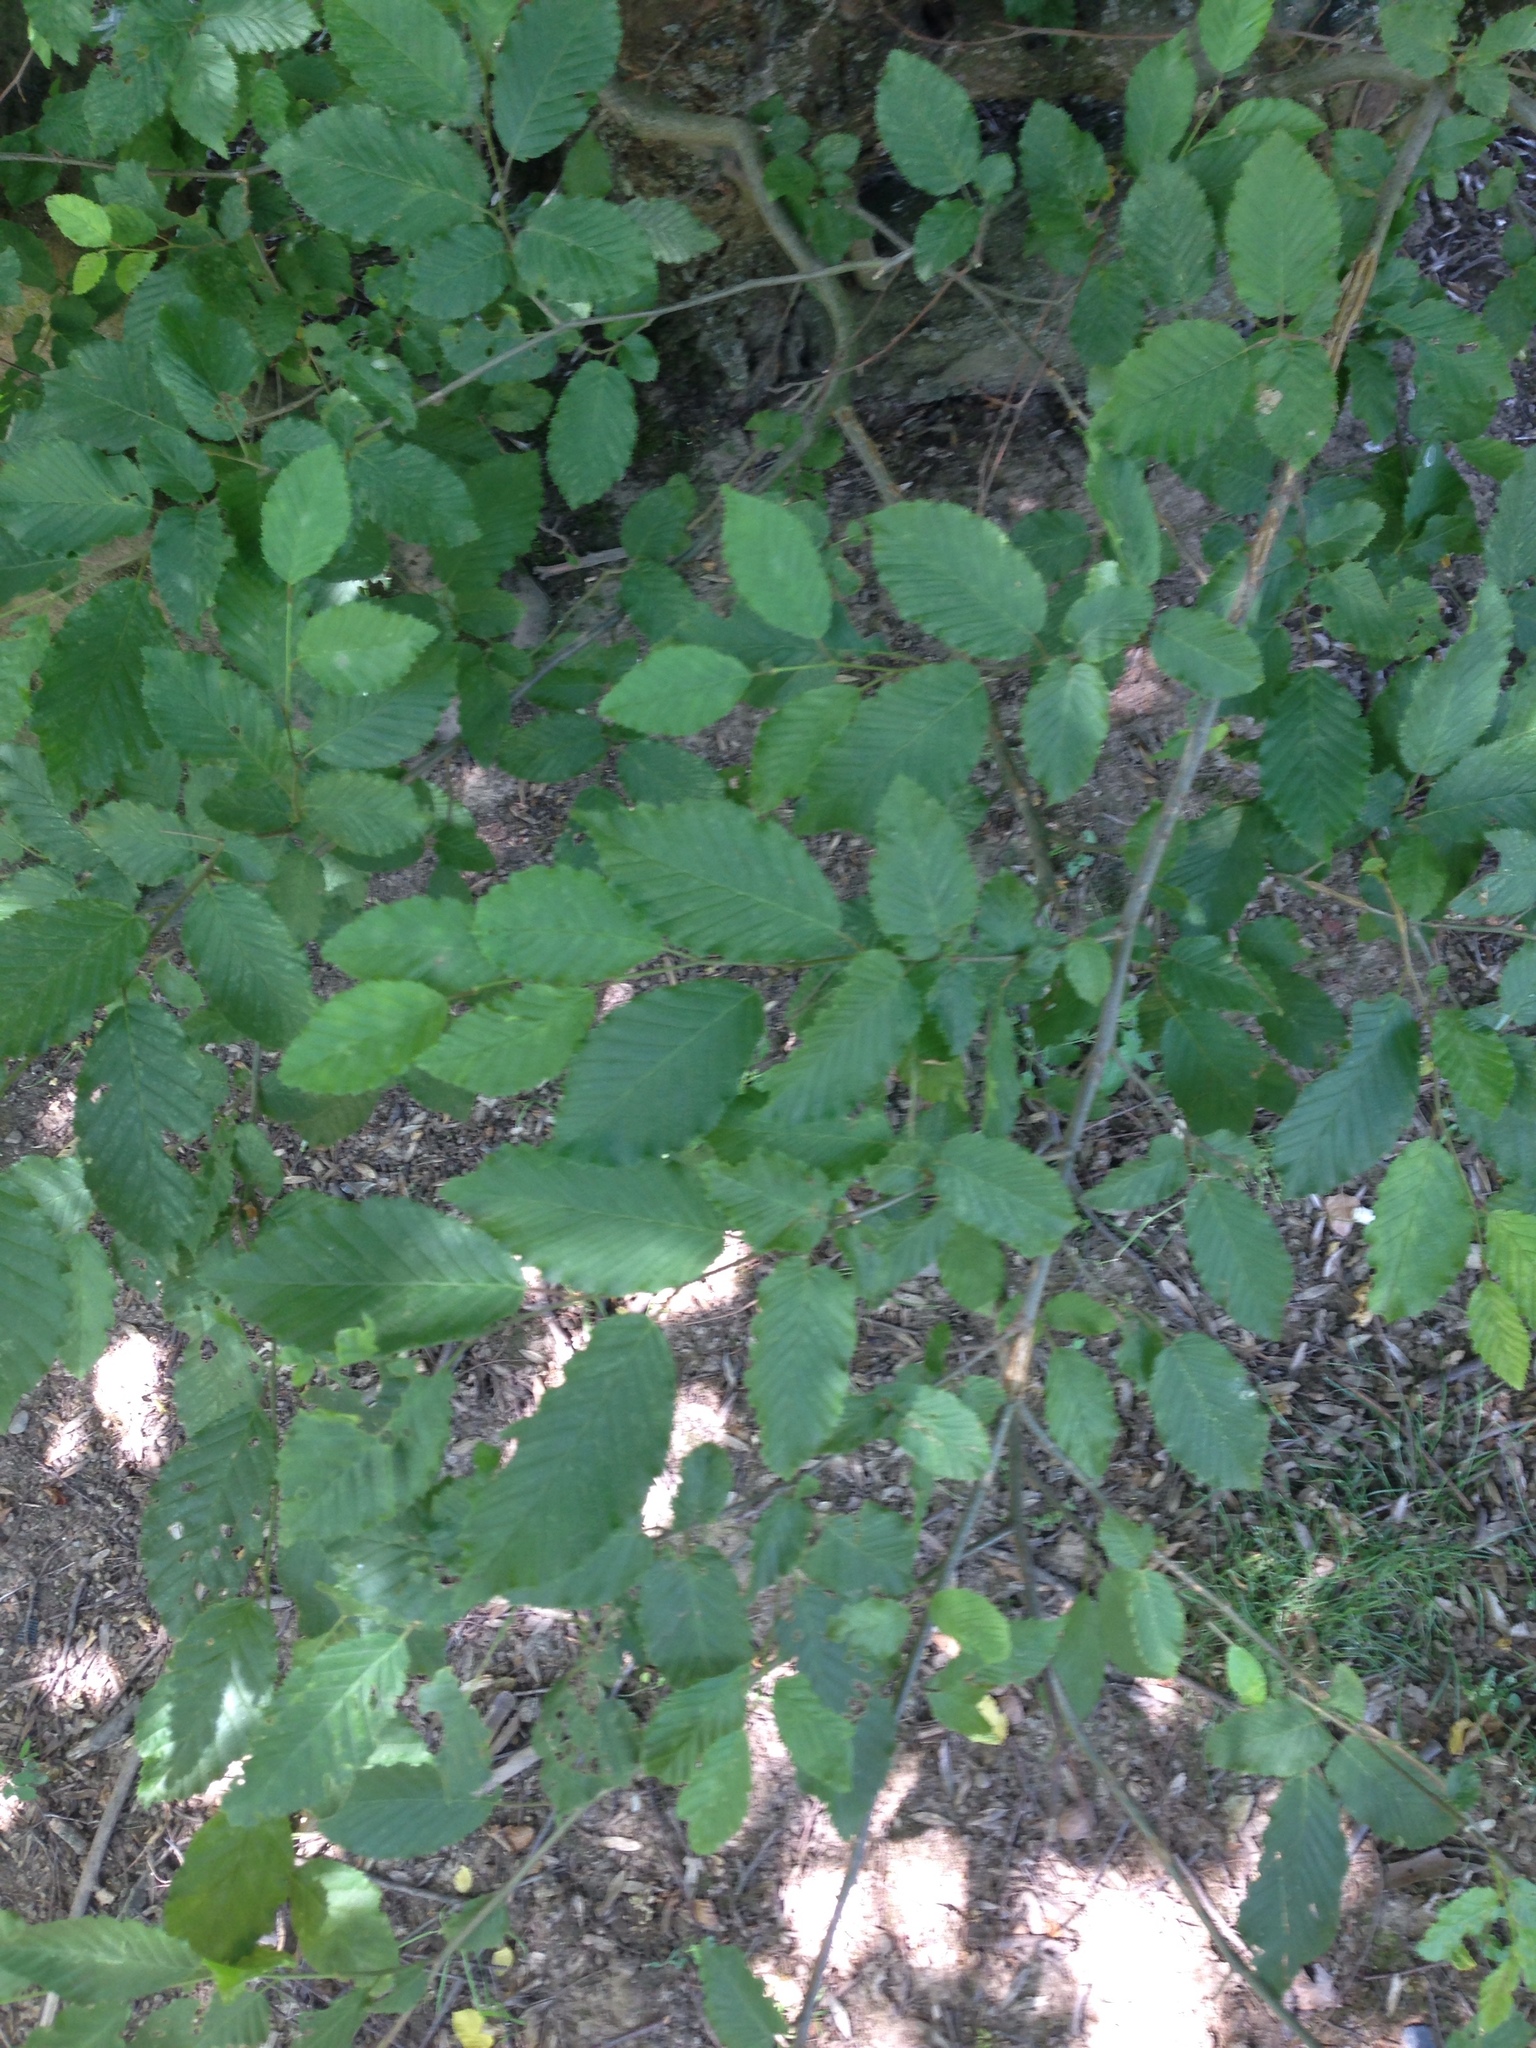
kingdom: Plantae
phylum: Tracheophyta
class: Magnoliopsida
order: Fagales
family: Betulaceae
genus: Carpinus
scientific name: Carpinus betulus
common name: Hornbeam
